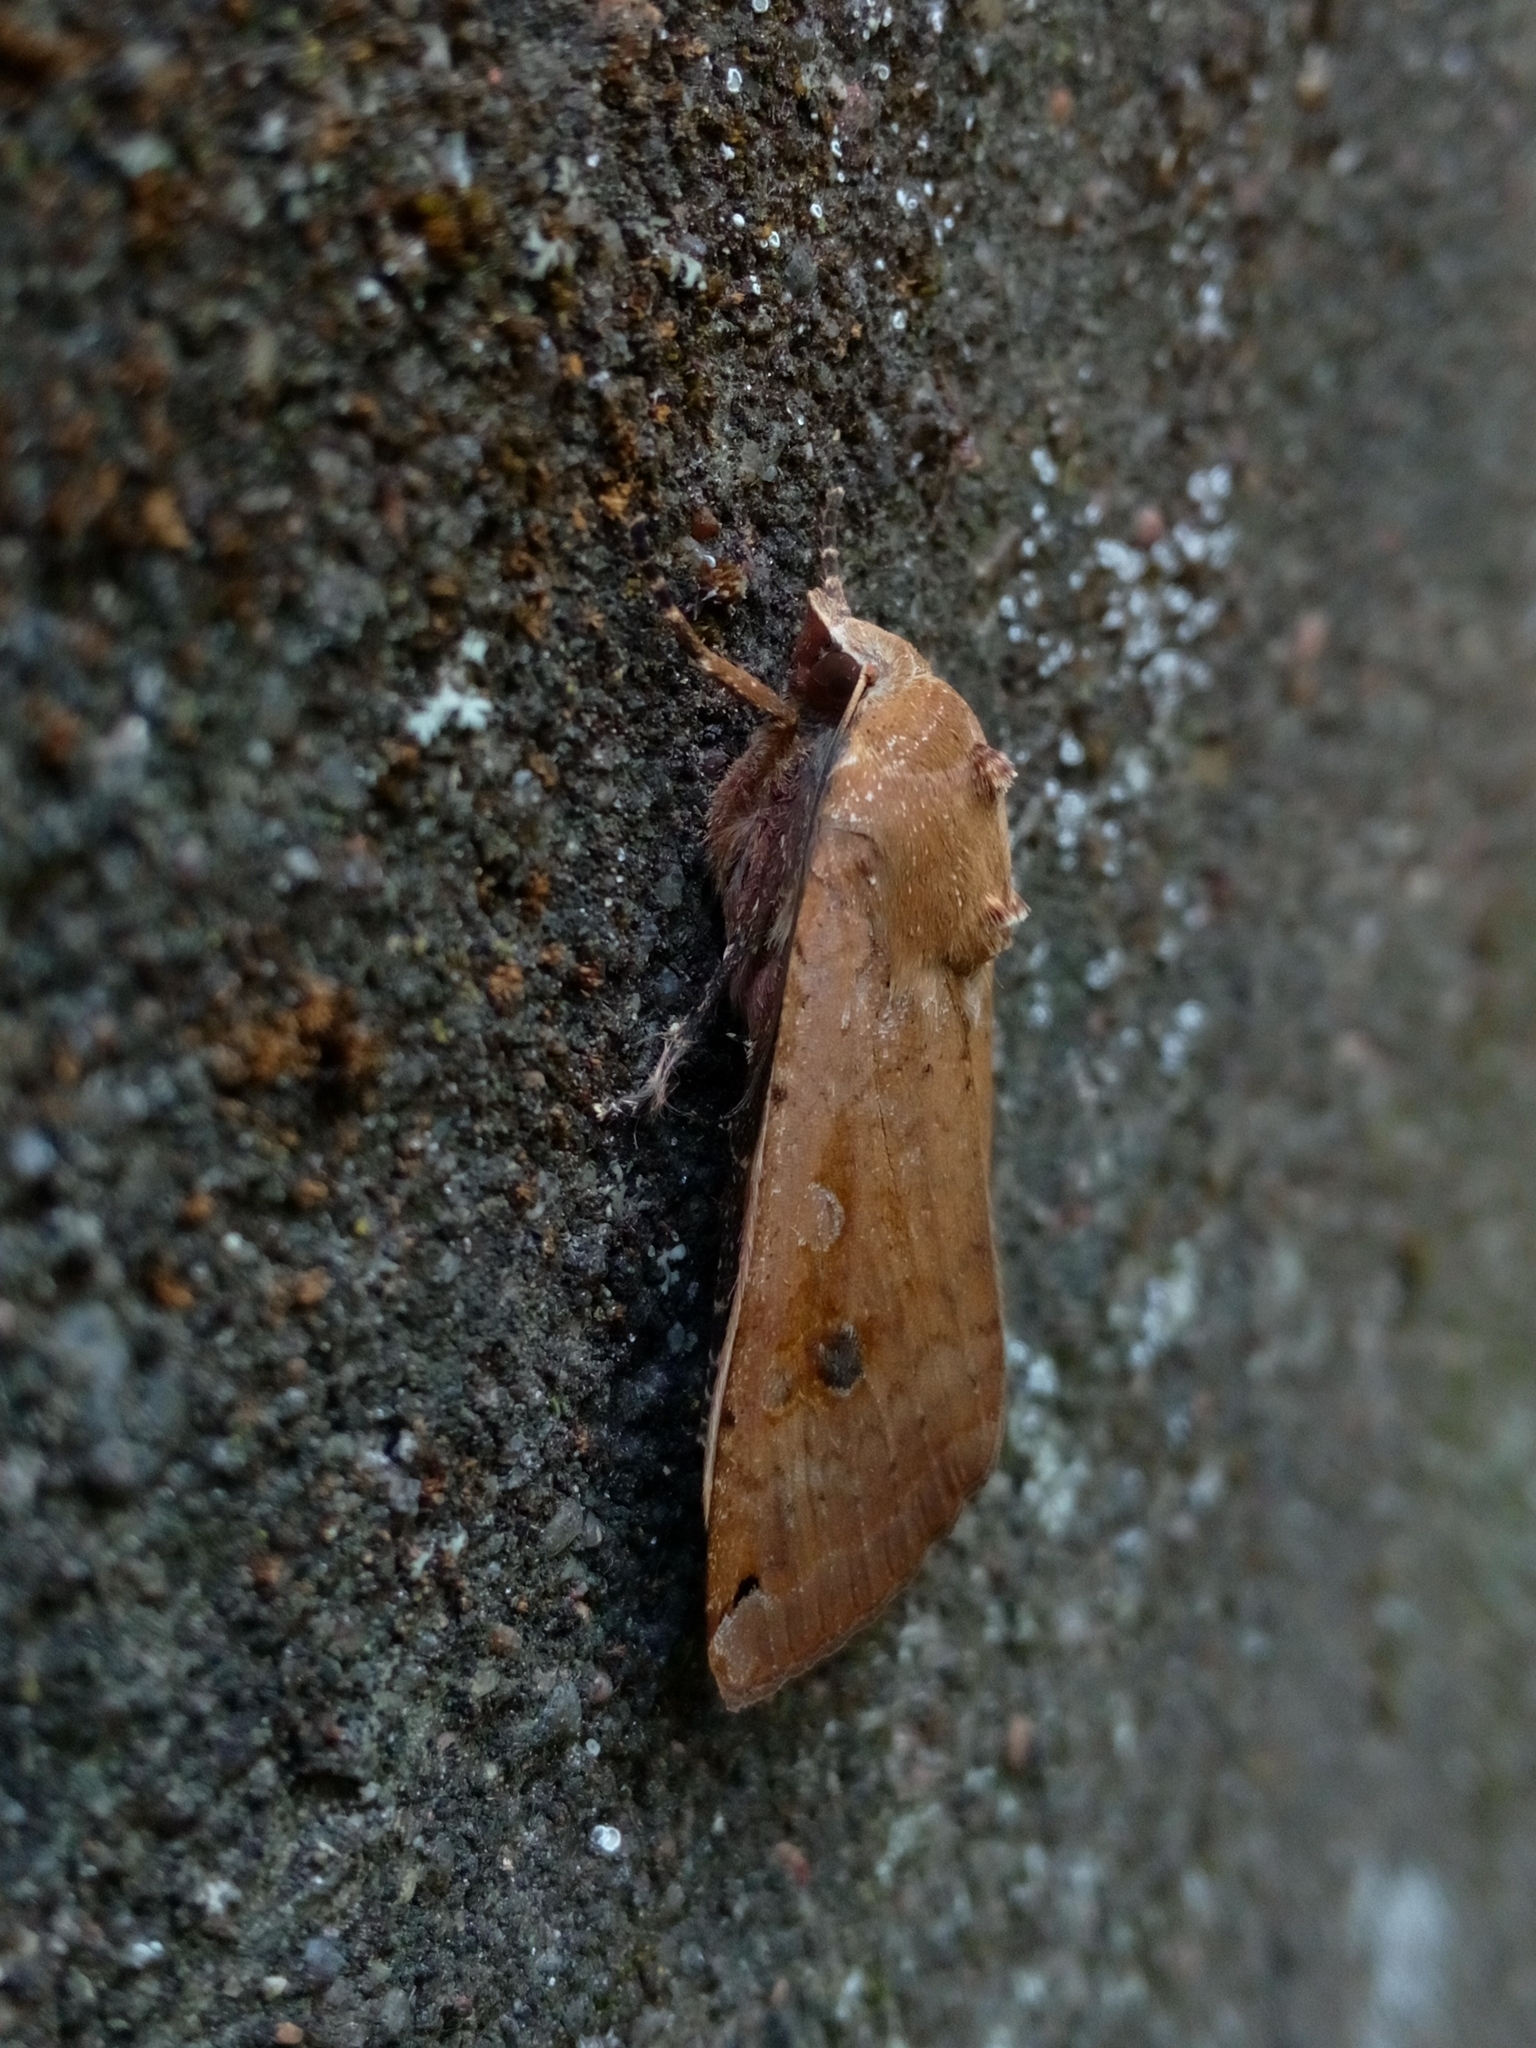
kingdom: Animalia
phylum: Arthropoda
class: Insecta
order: Lepidoptera
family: Noctuidae
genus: Noctua
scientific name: Noctua pronuba
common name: Large yellow underwing
